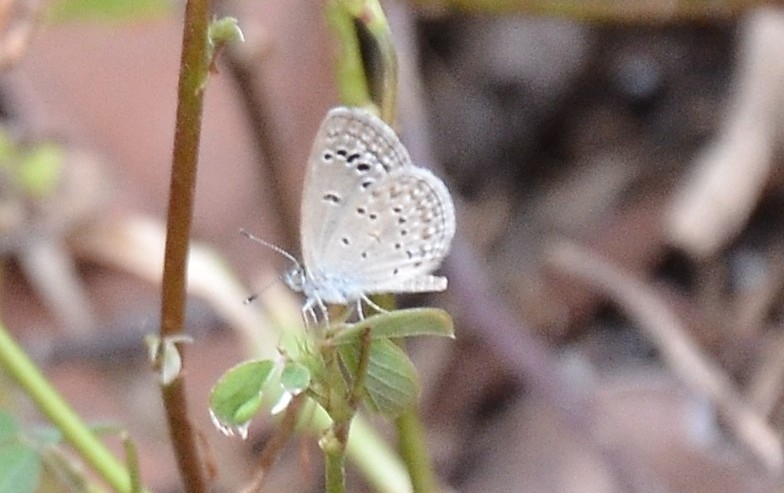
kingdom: Animalia
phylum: Arthropoda
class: Insecta
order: Lepidoptera
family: Lycaenidae
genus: Zizina
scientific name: Zizina otis
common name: Lesser grass blue
